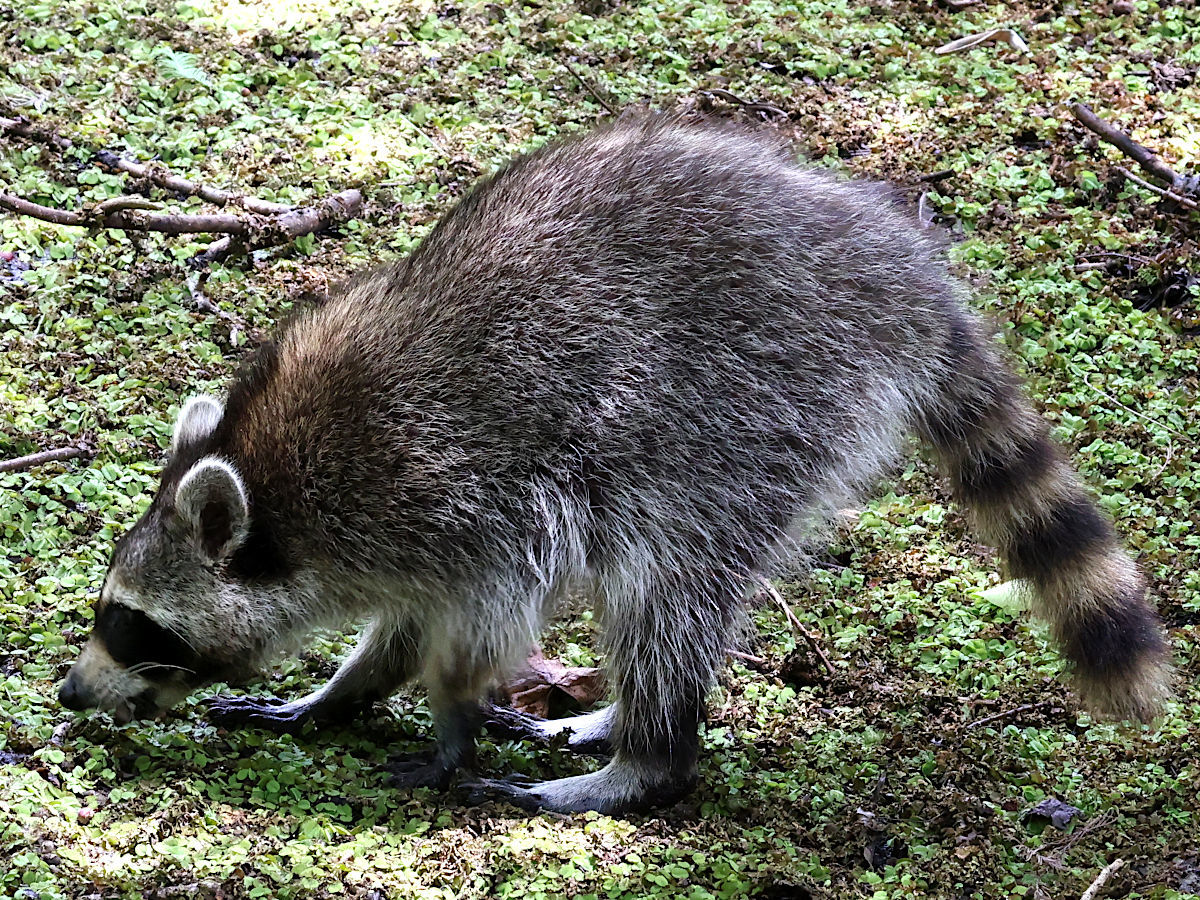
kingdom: Animalia
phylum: Chordata
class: Mammalia
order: Carnivora
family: Procyonidae
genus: Procyon
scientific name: Procyon lotor
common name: Raccoon
